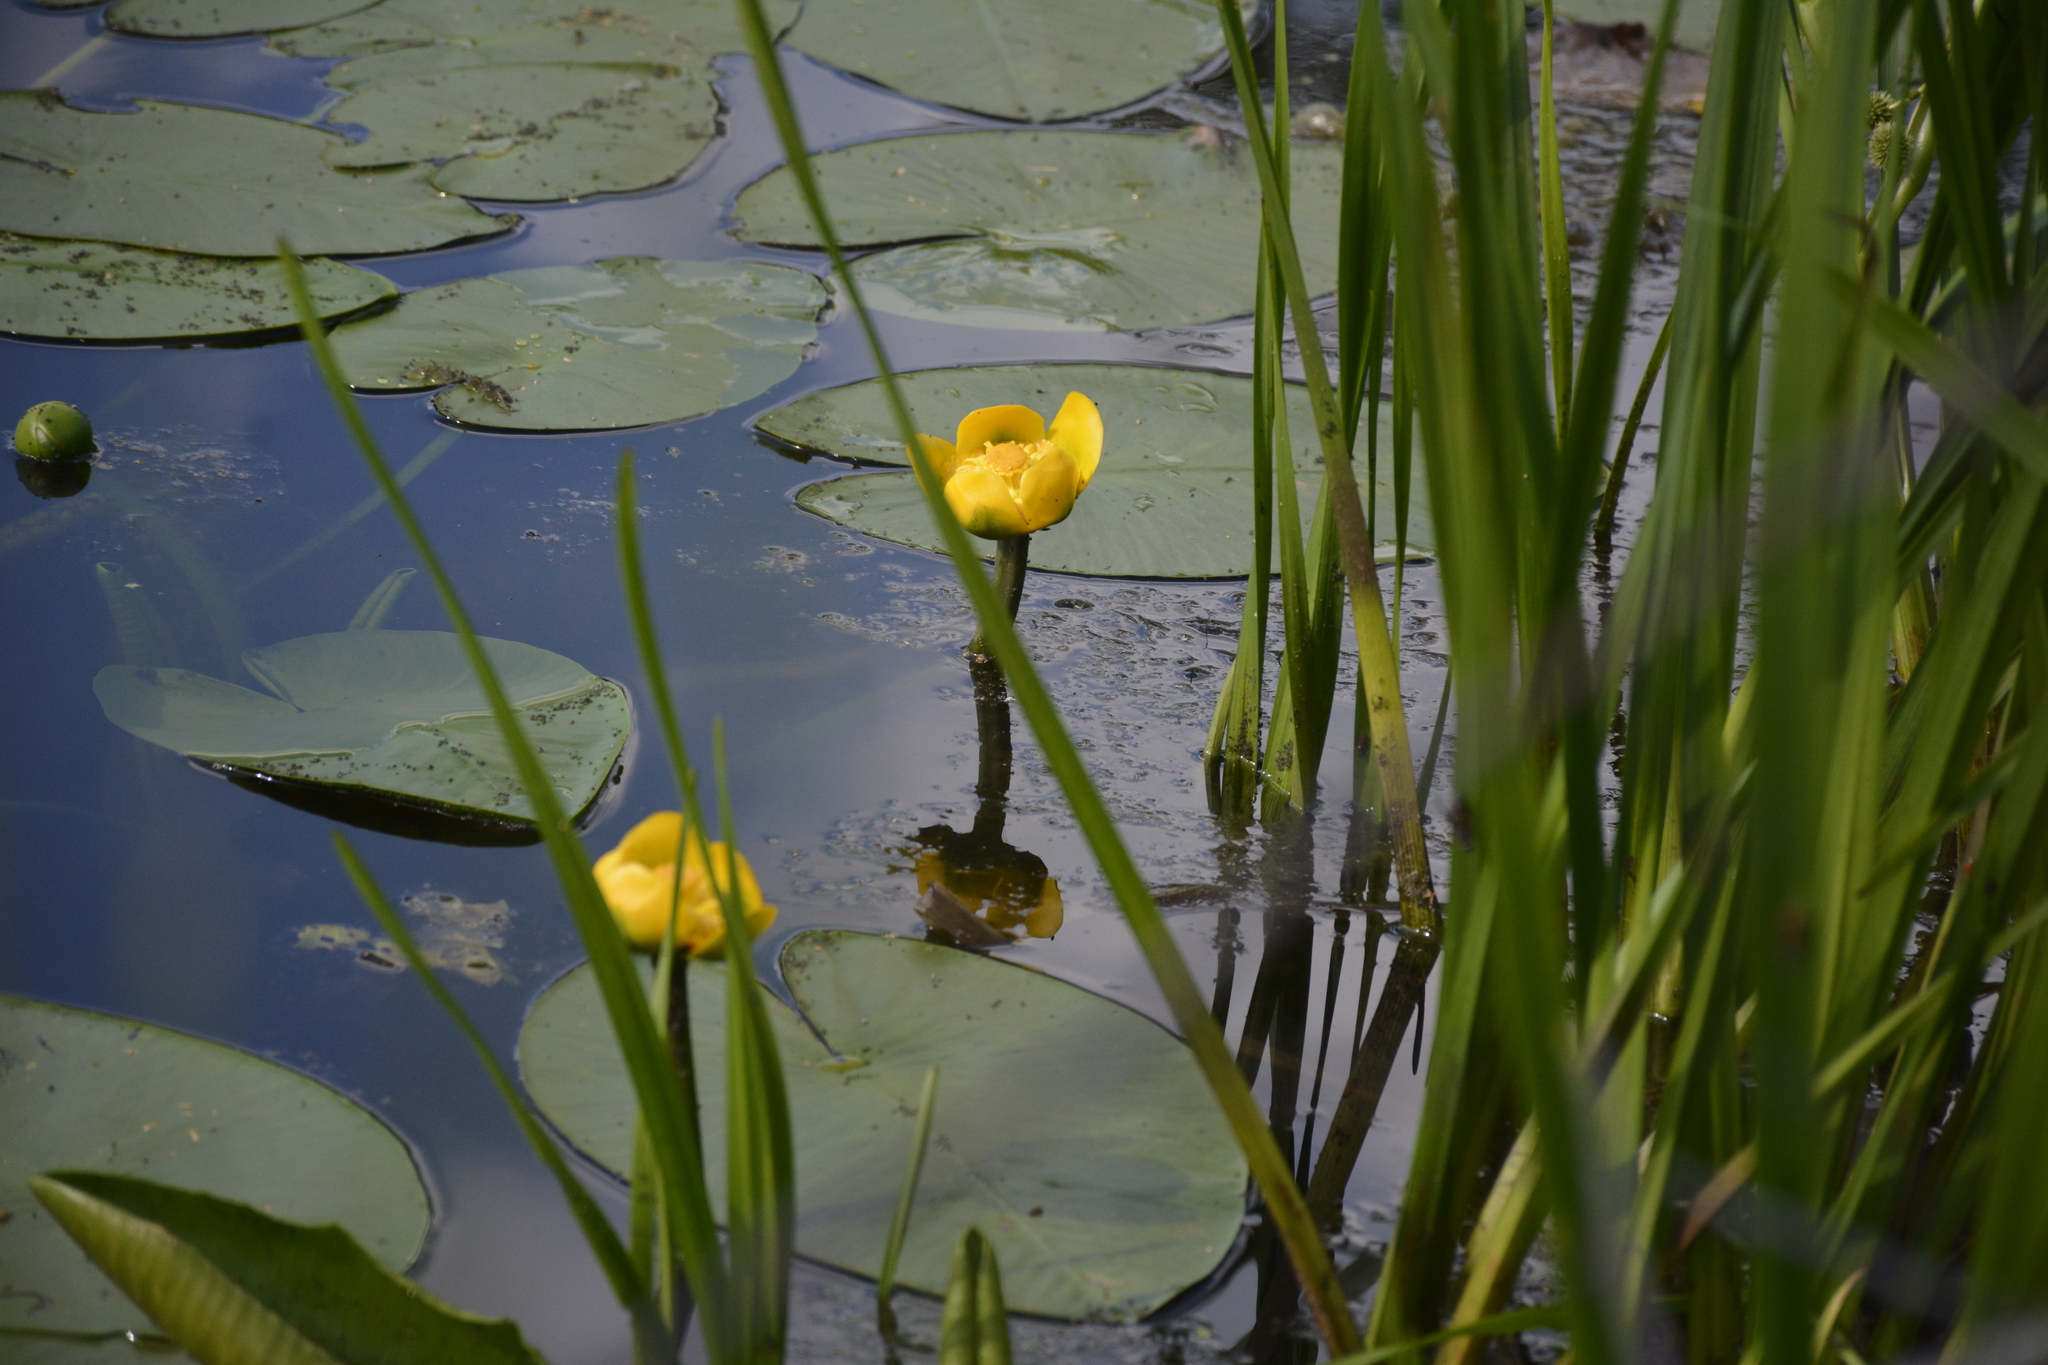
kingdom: Plantae
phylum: Tracheophyta
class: Magnoliopsida
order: Nymphaeales
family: Nymphaeaceae
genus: Nuphar
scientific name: Nuphar lutea
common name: Yellow water-lily
